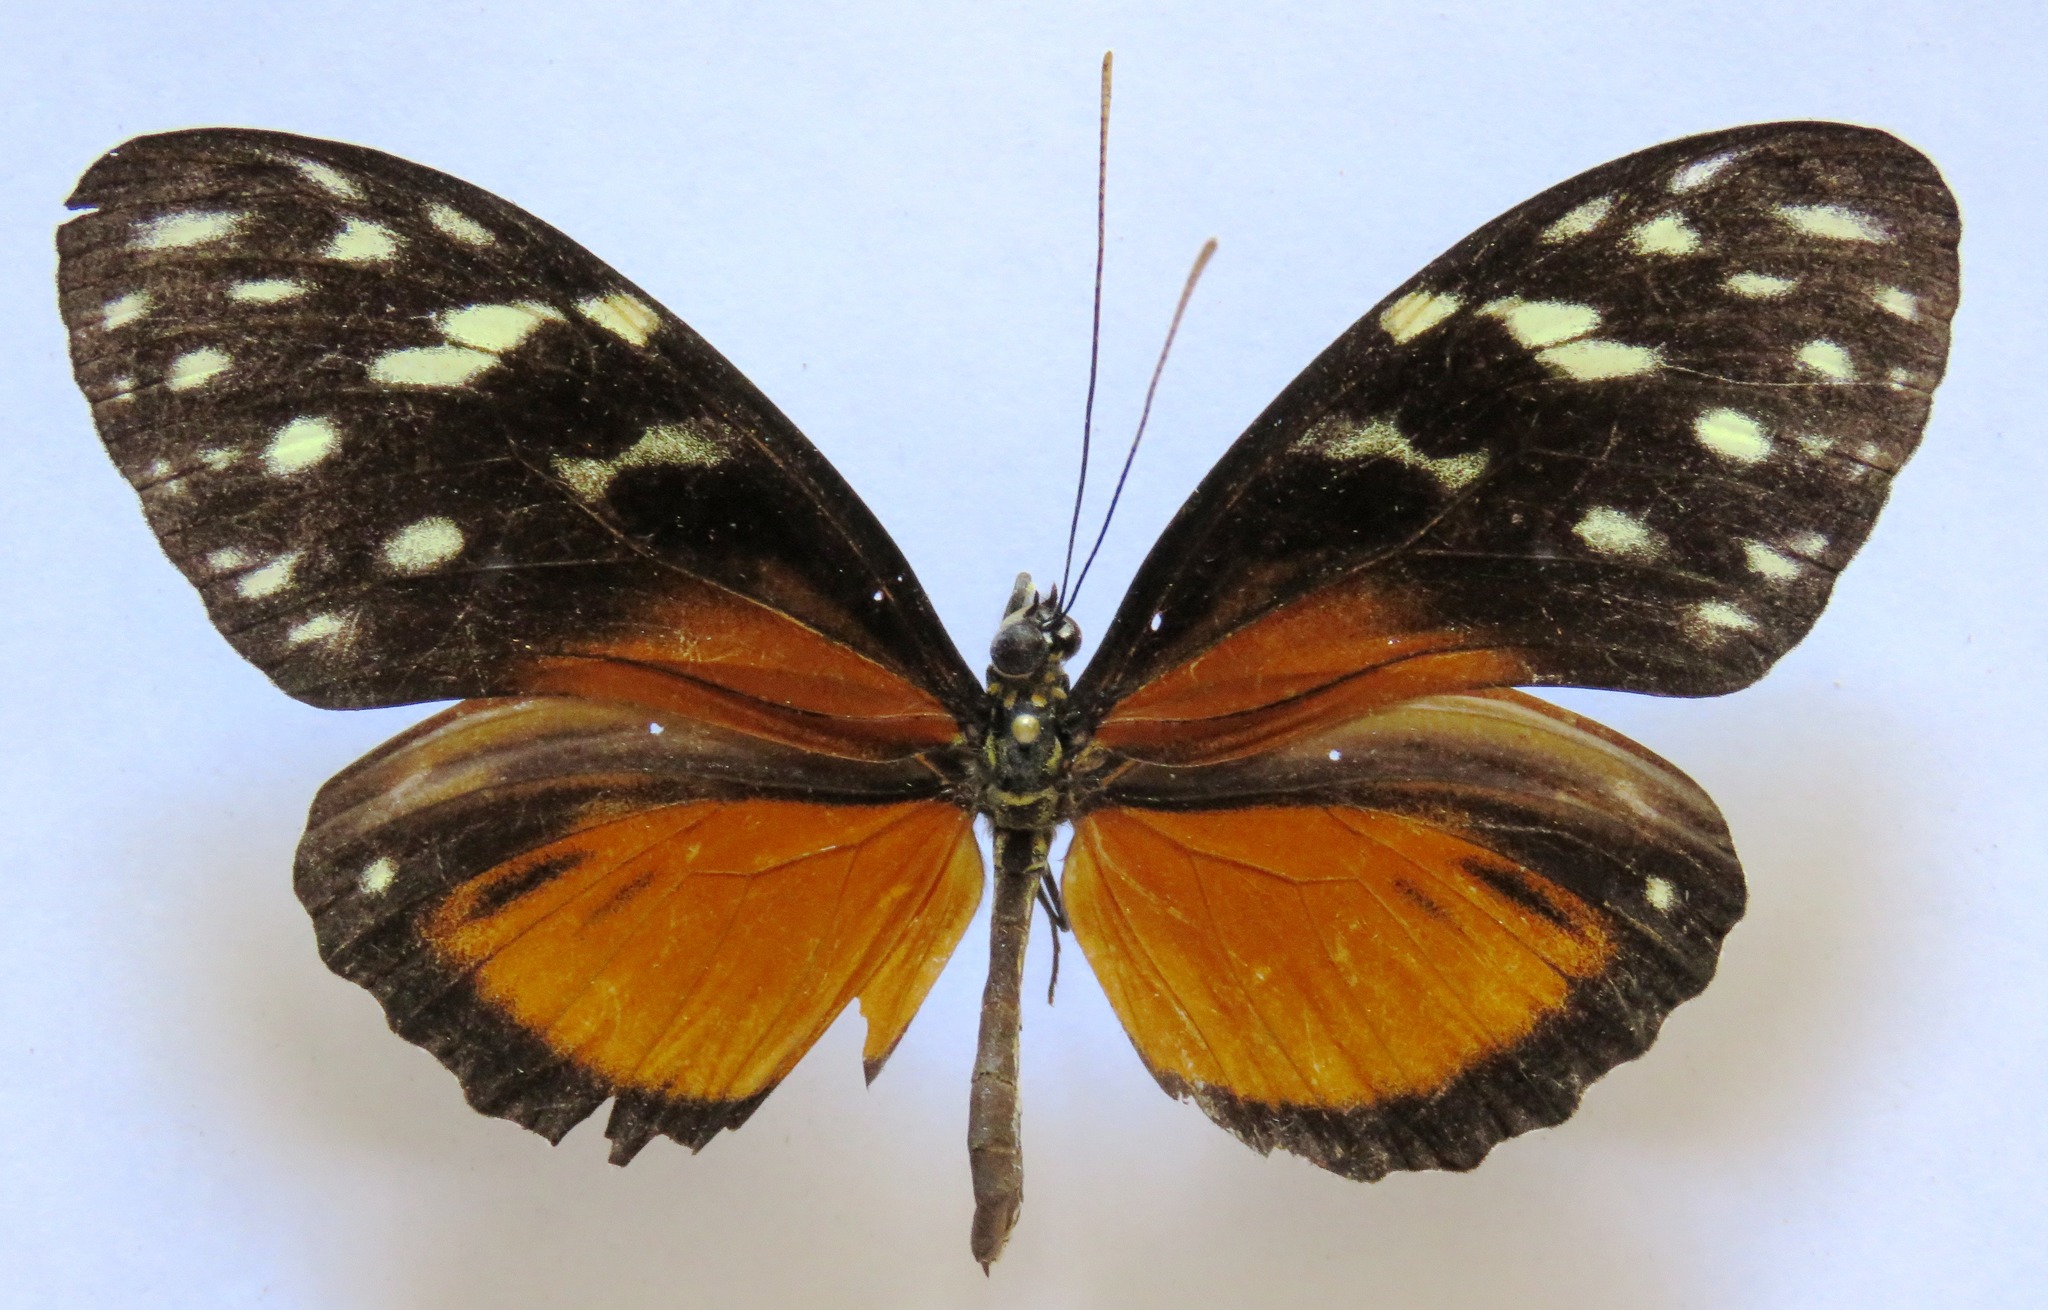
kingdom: Animalia
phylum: Arthropoda
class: Insecta
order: Lepidoptera
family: Nymphalidae
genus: Heliconius
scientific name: Heliconius hecale
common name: Tiger longwing
